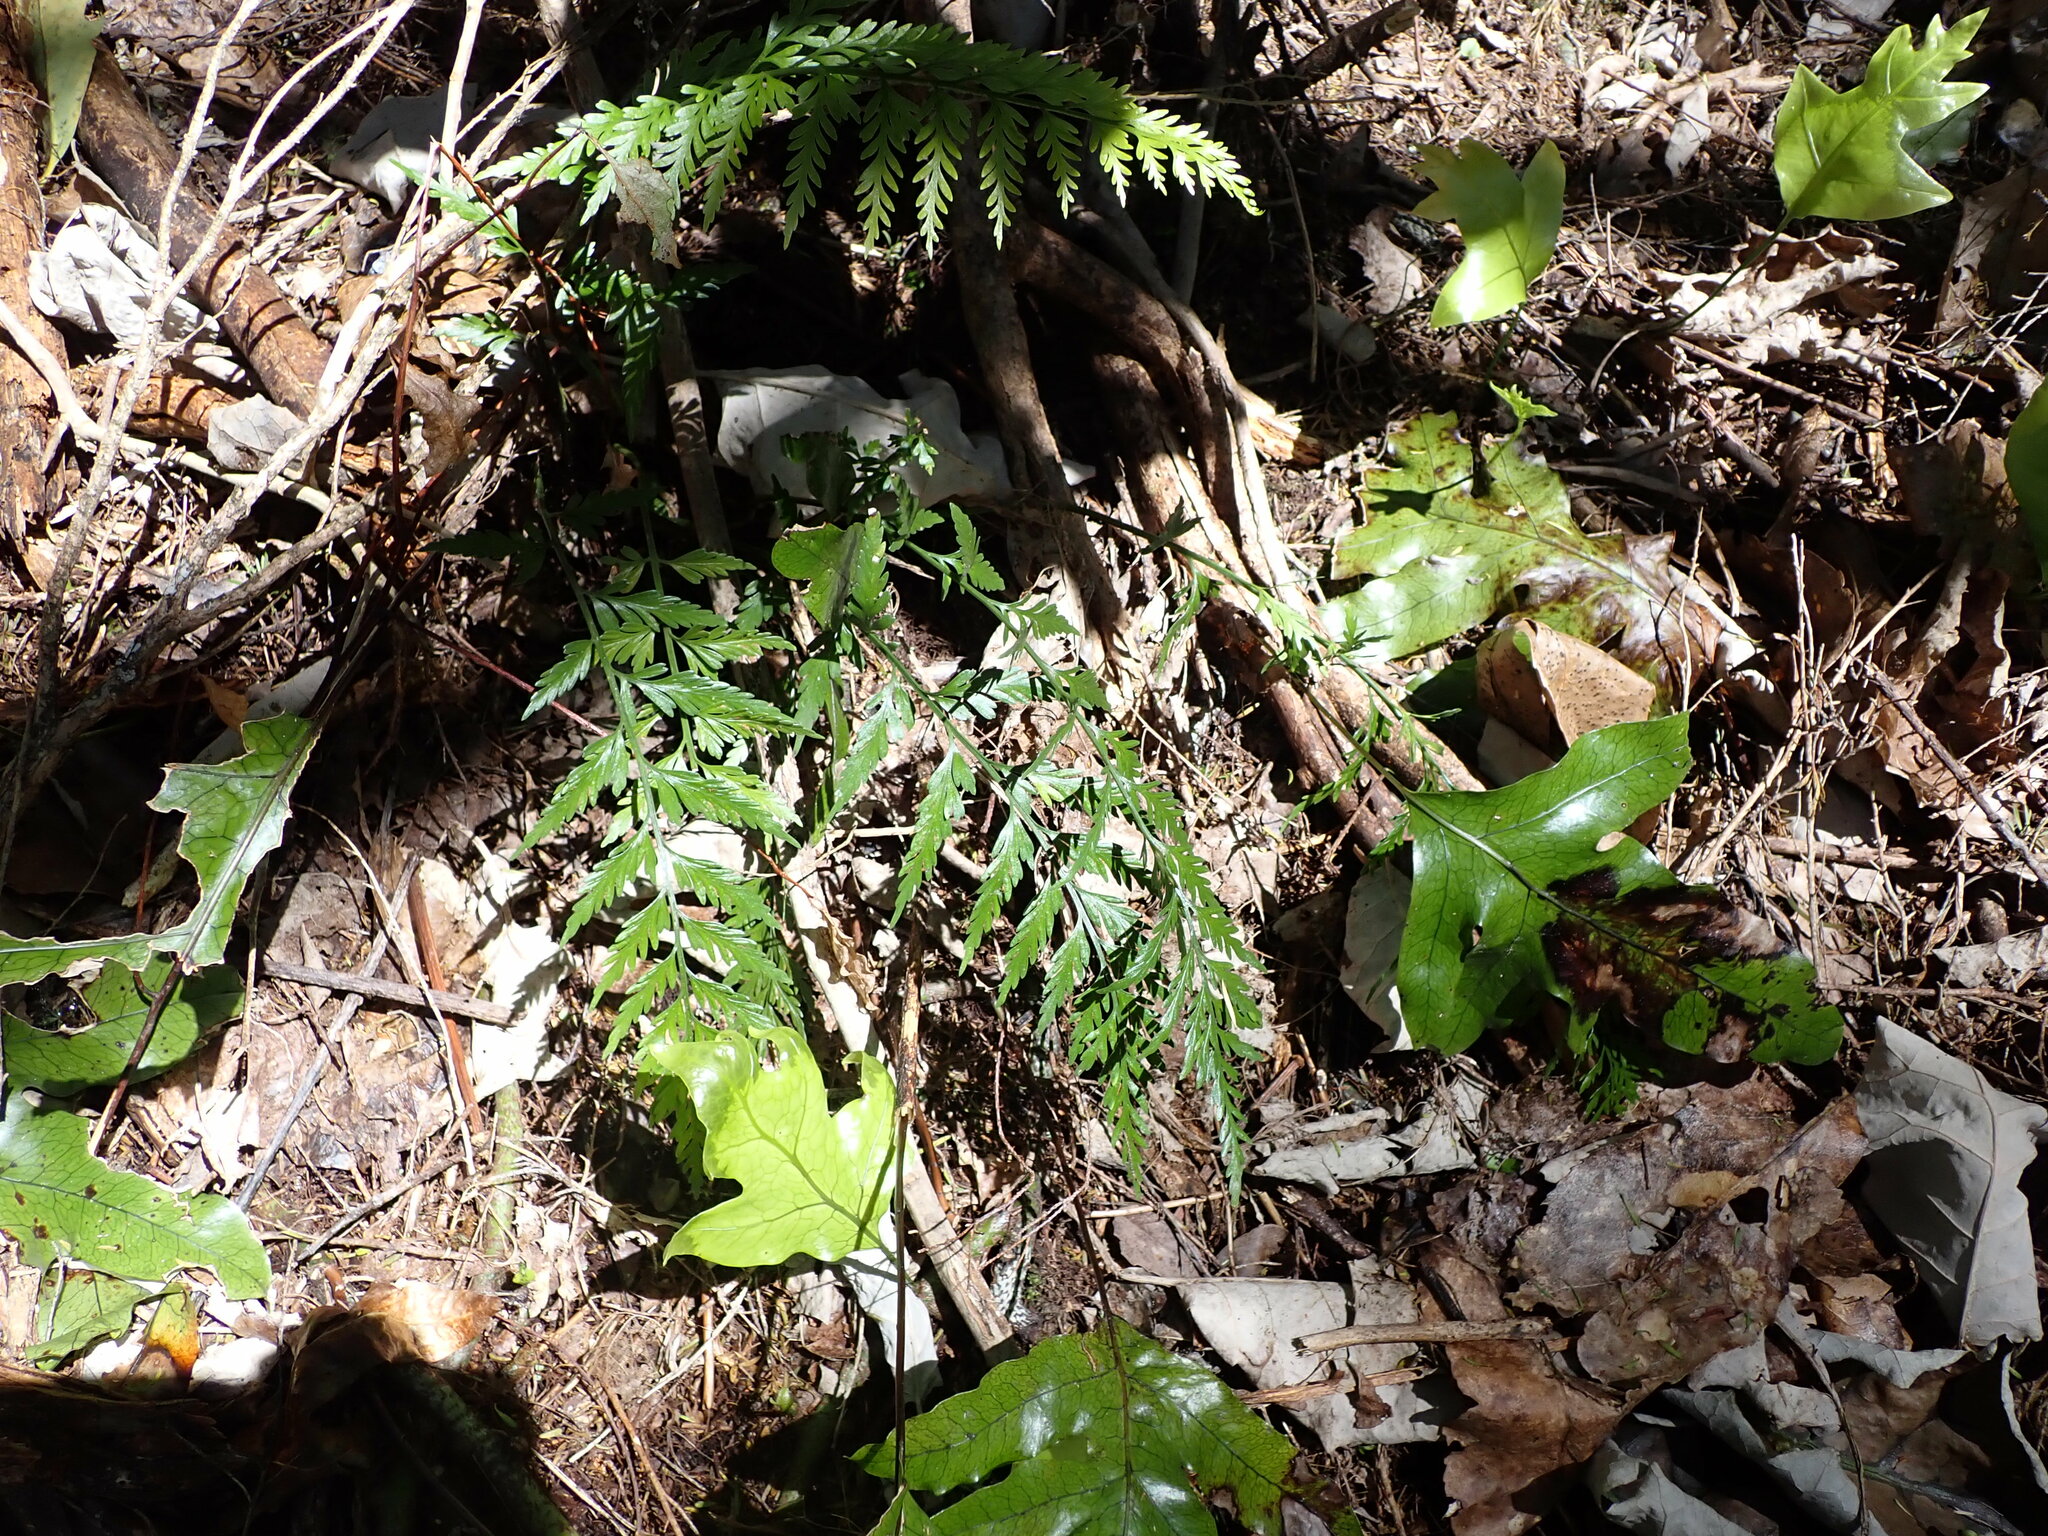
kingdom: Plantae
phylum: Tracheophyta
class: Polypodiopsida
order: Polypodiales
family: Aspleniaceae
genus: Asplenium
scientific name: Asplenium appendiculatum
